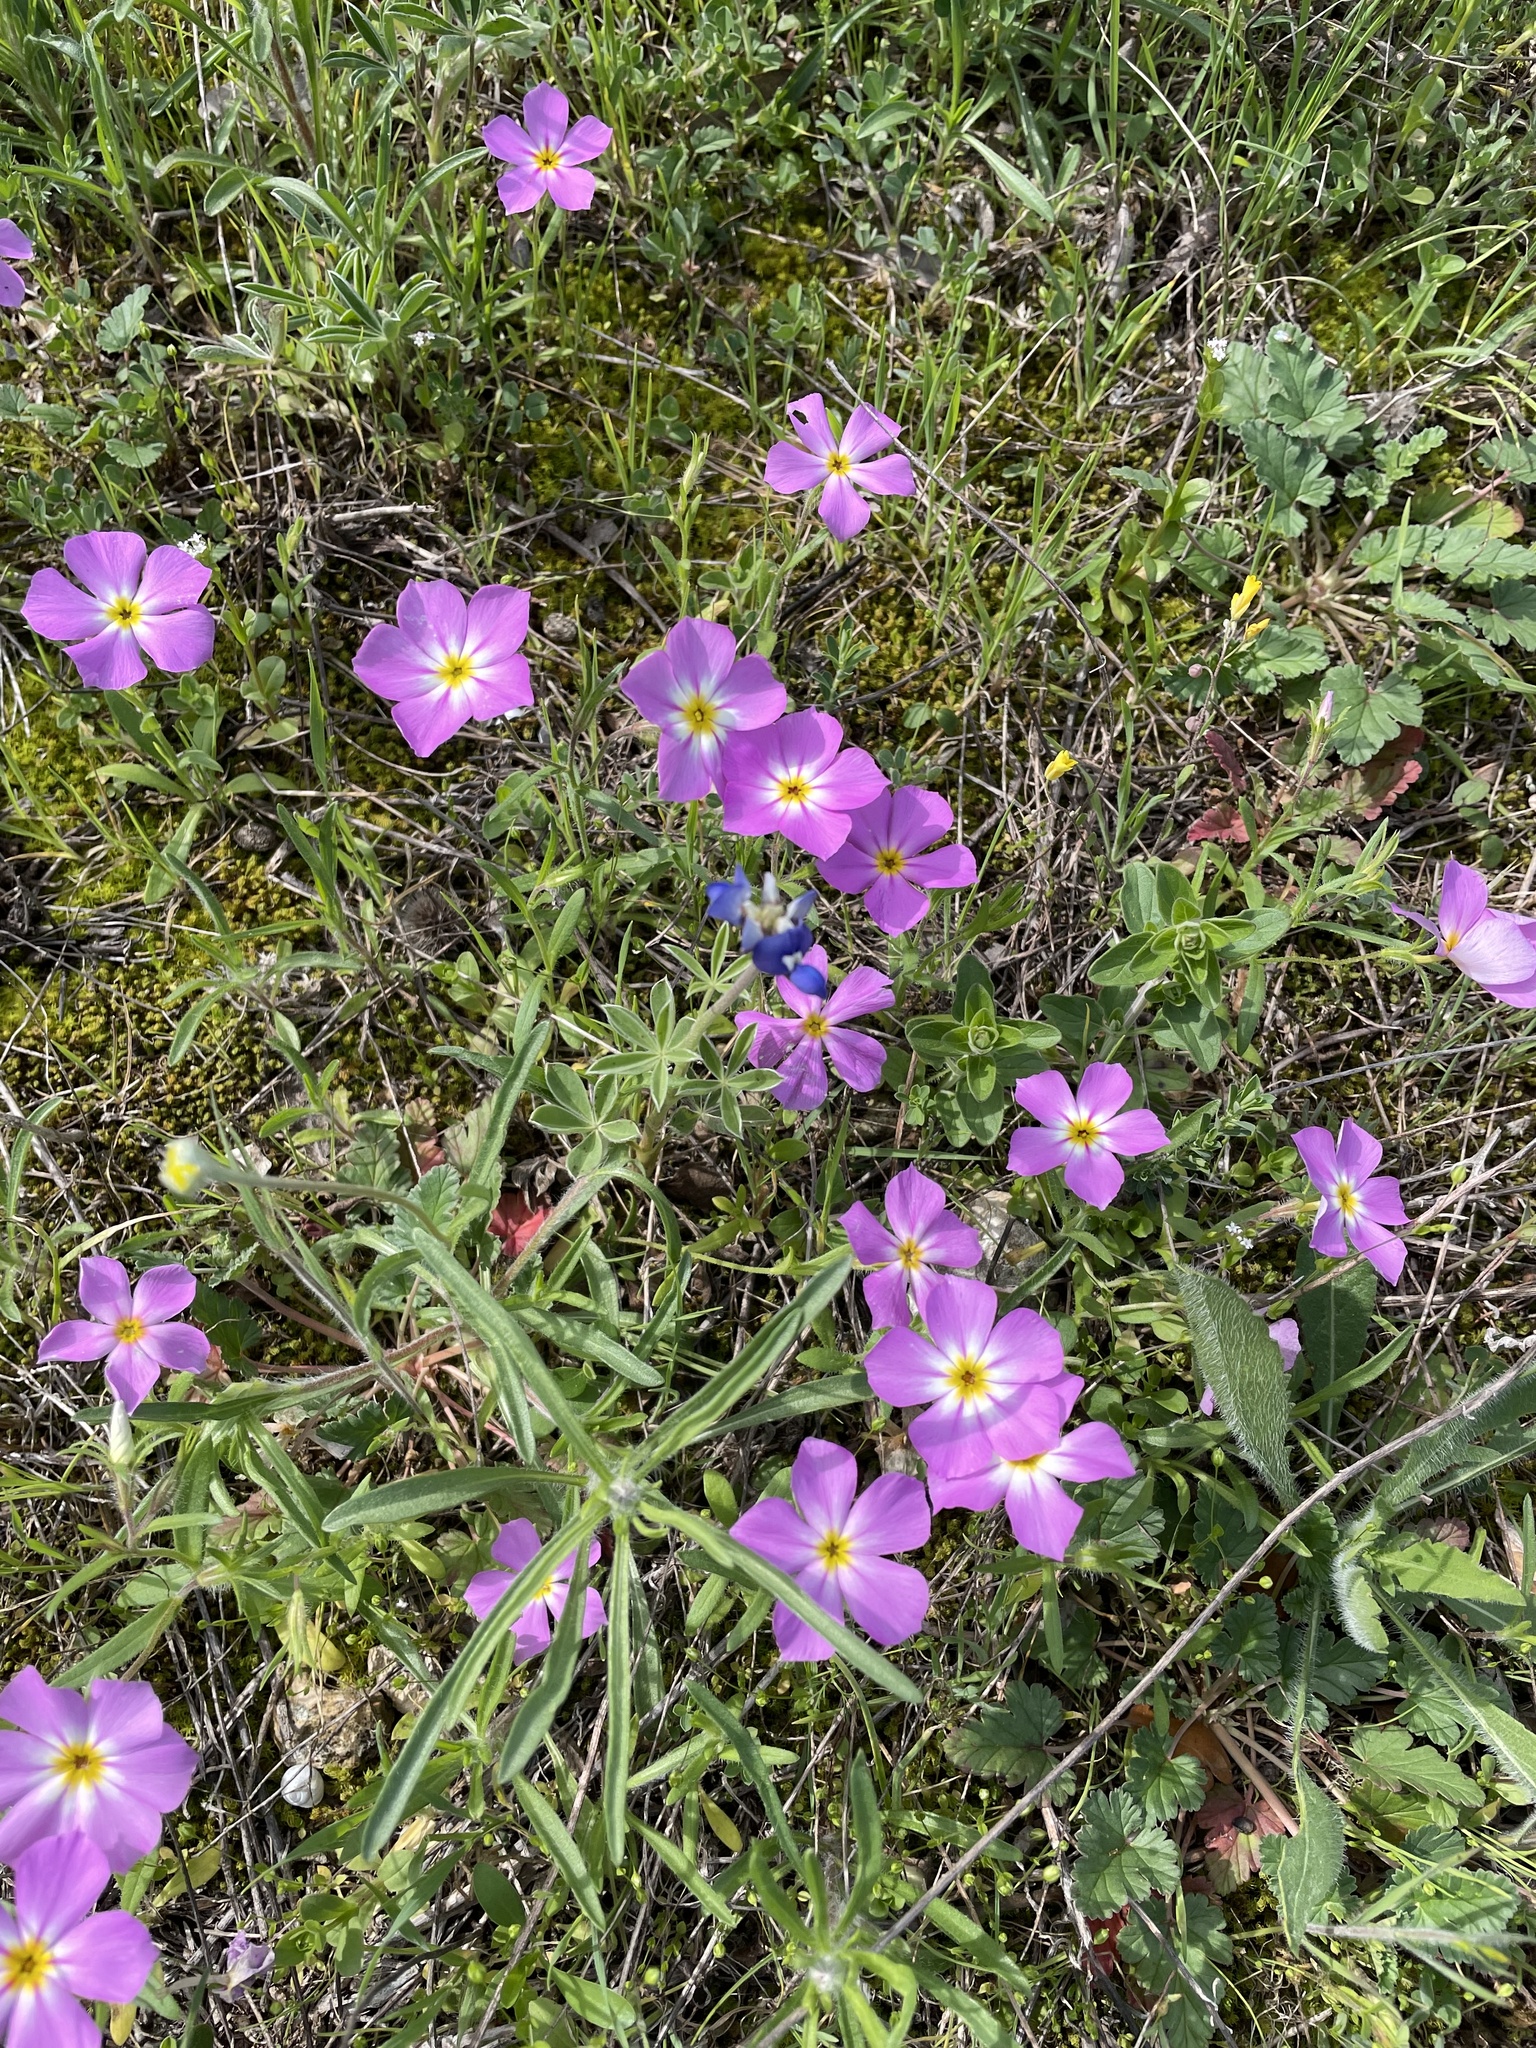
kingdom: Plantae
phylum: Tracheophyta
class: Magnoliopsida
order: Ericales
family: Polemoniaceae
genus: Phlox
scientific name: Phlox roemeriana
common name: Roemer's phlox
